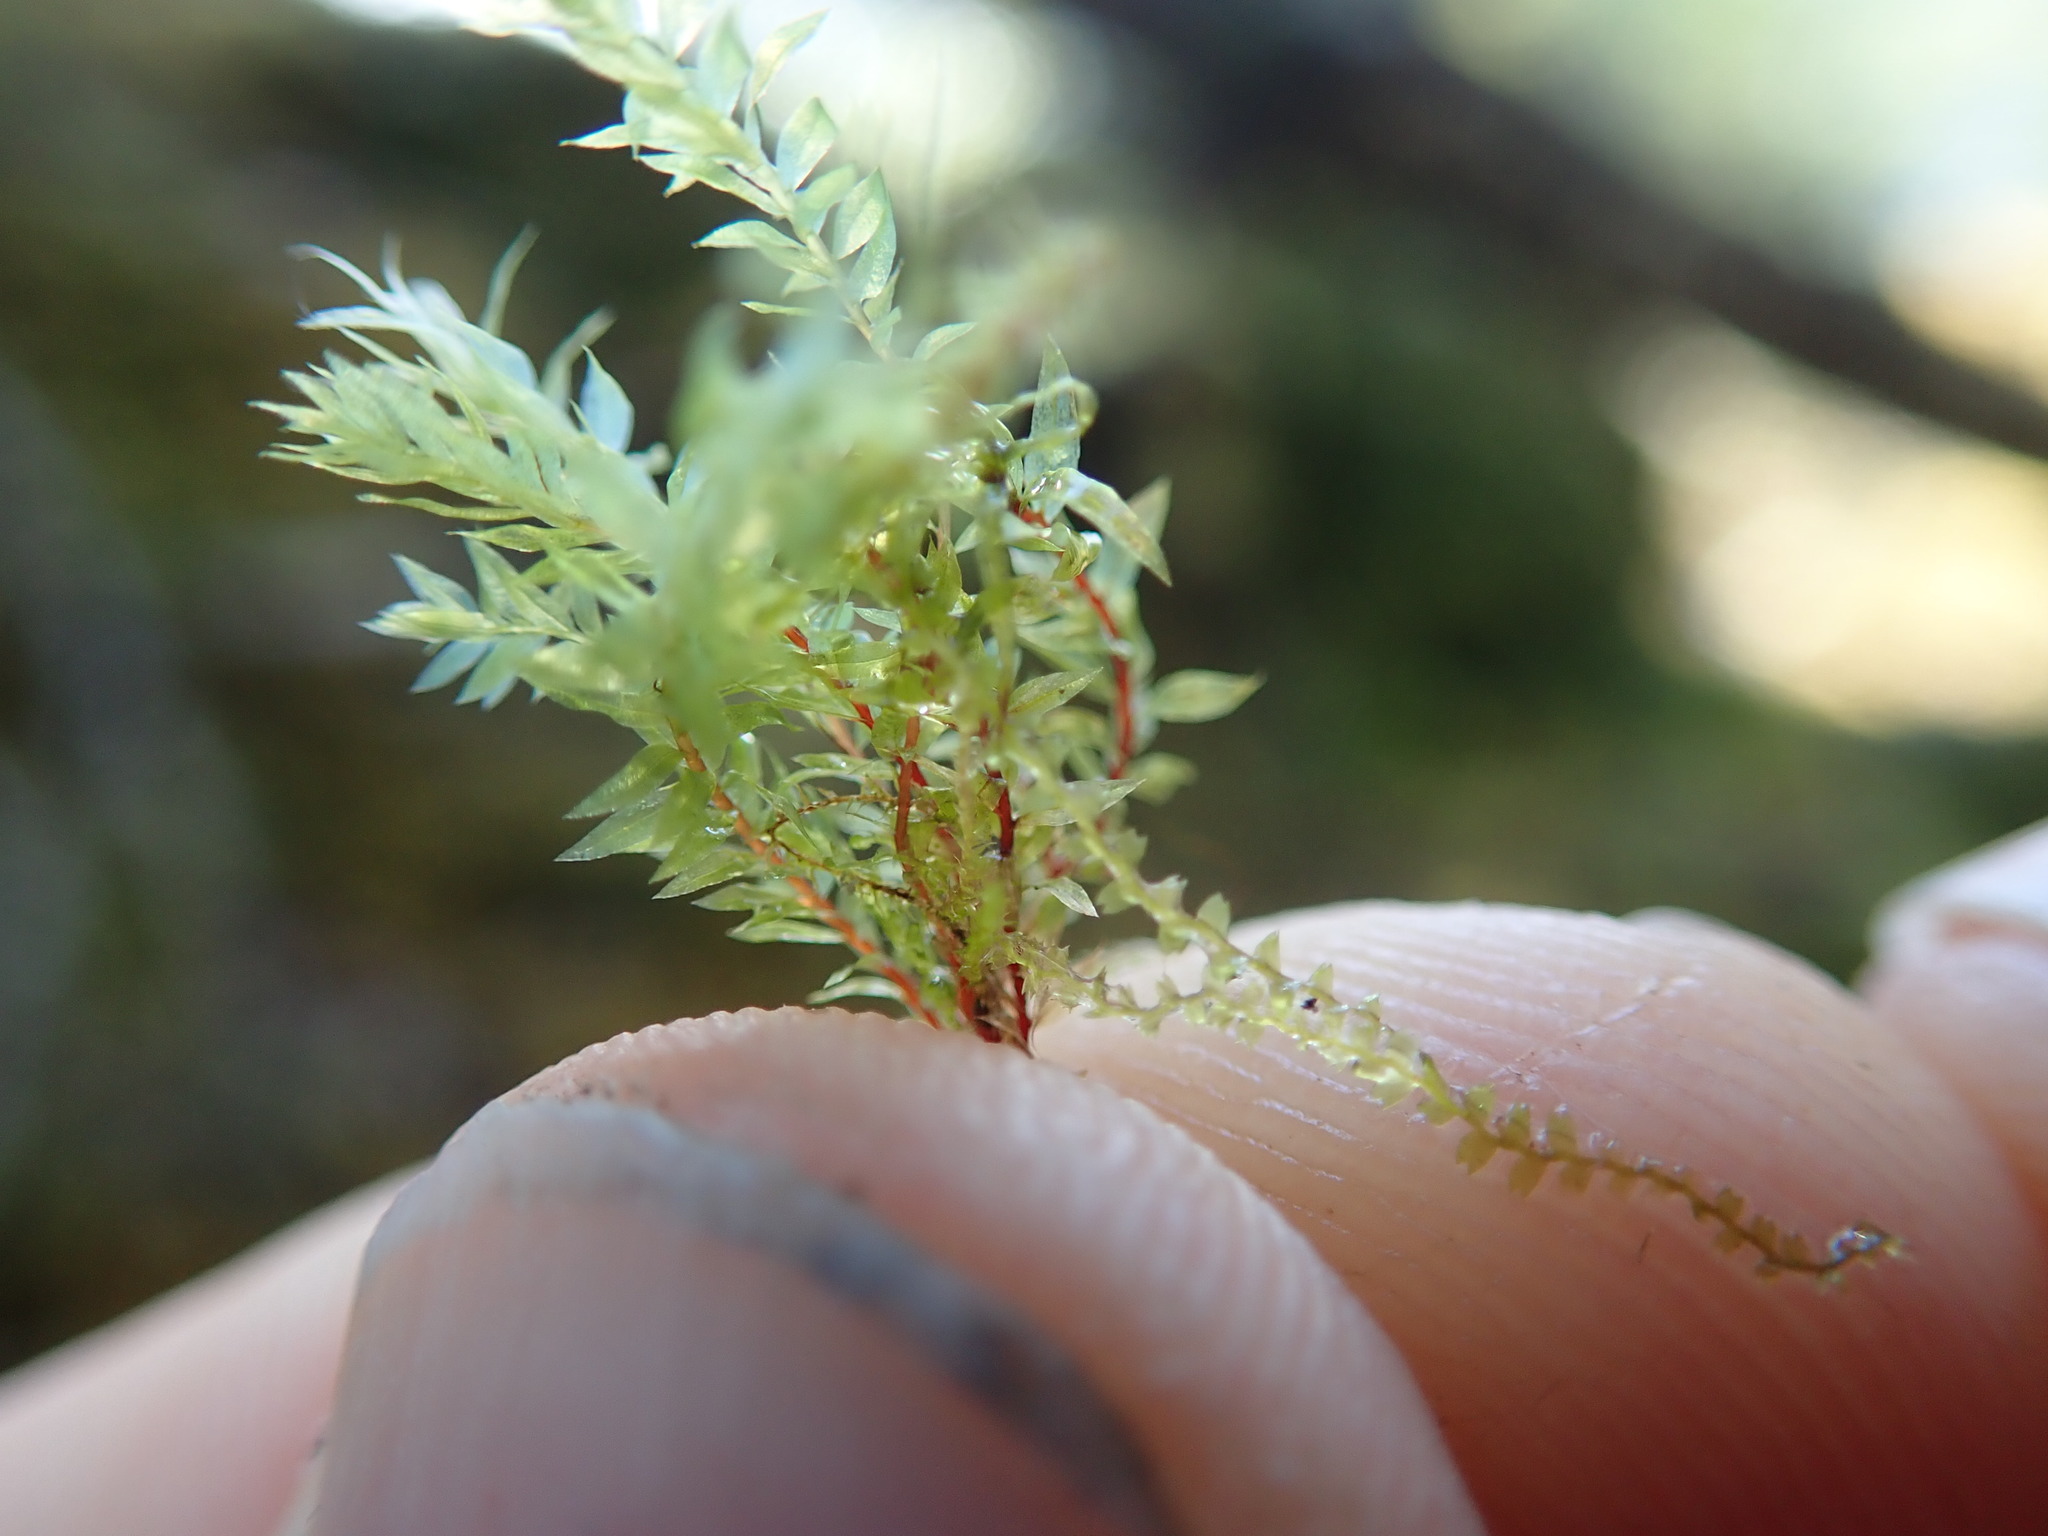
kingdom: Plantae
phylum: Bryophyta
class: Bryopsida
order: Bryales
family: Mniaceae
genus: Pohlia
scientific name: Pohlia cruda
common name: Opal nodding moss
